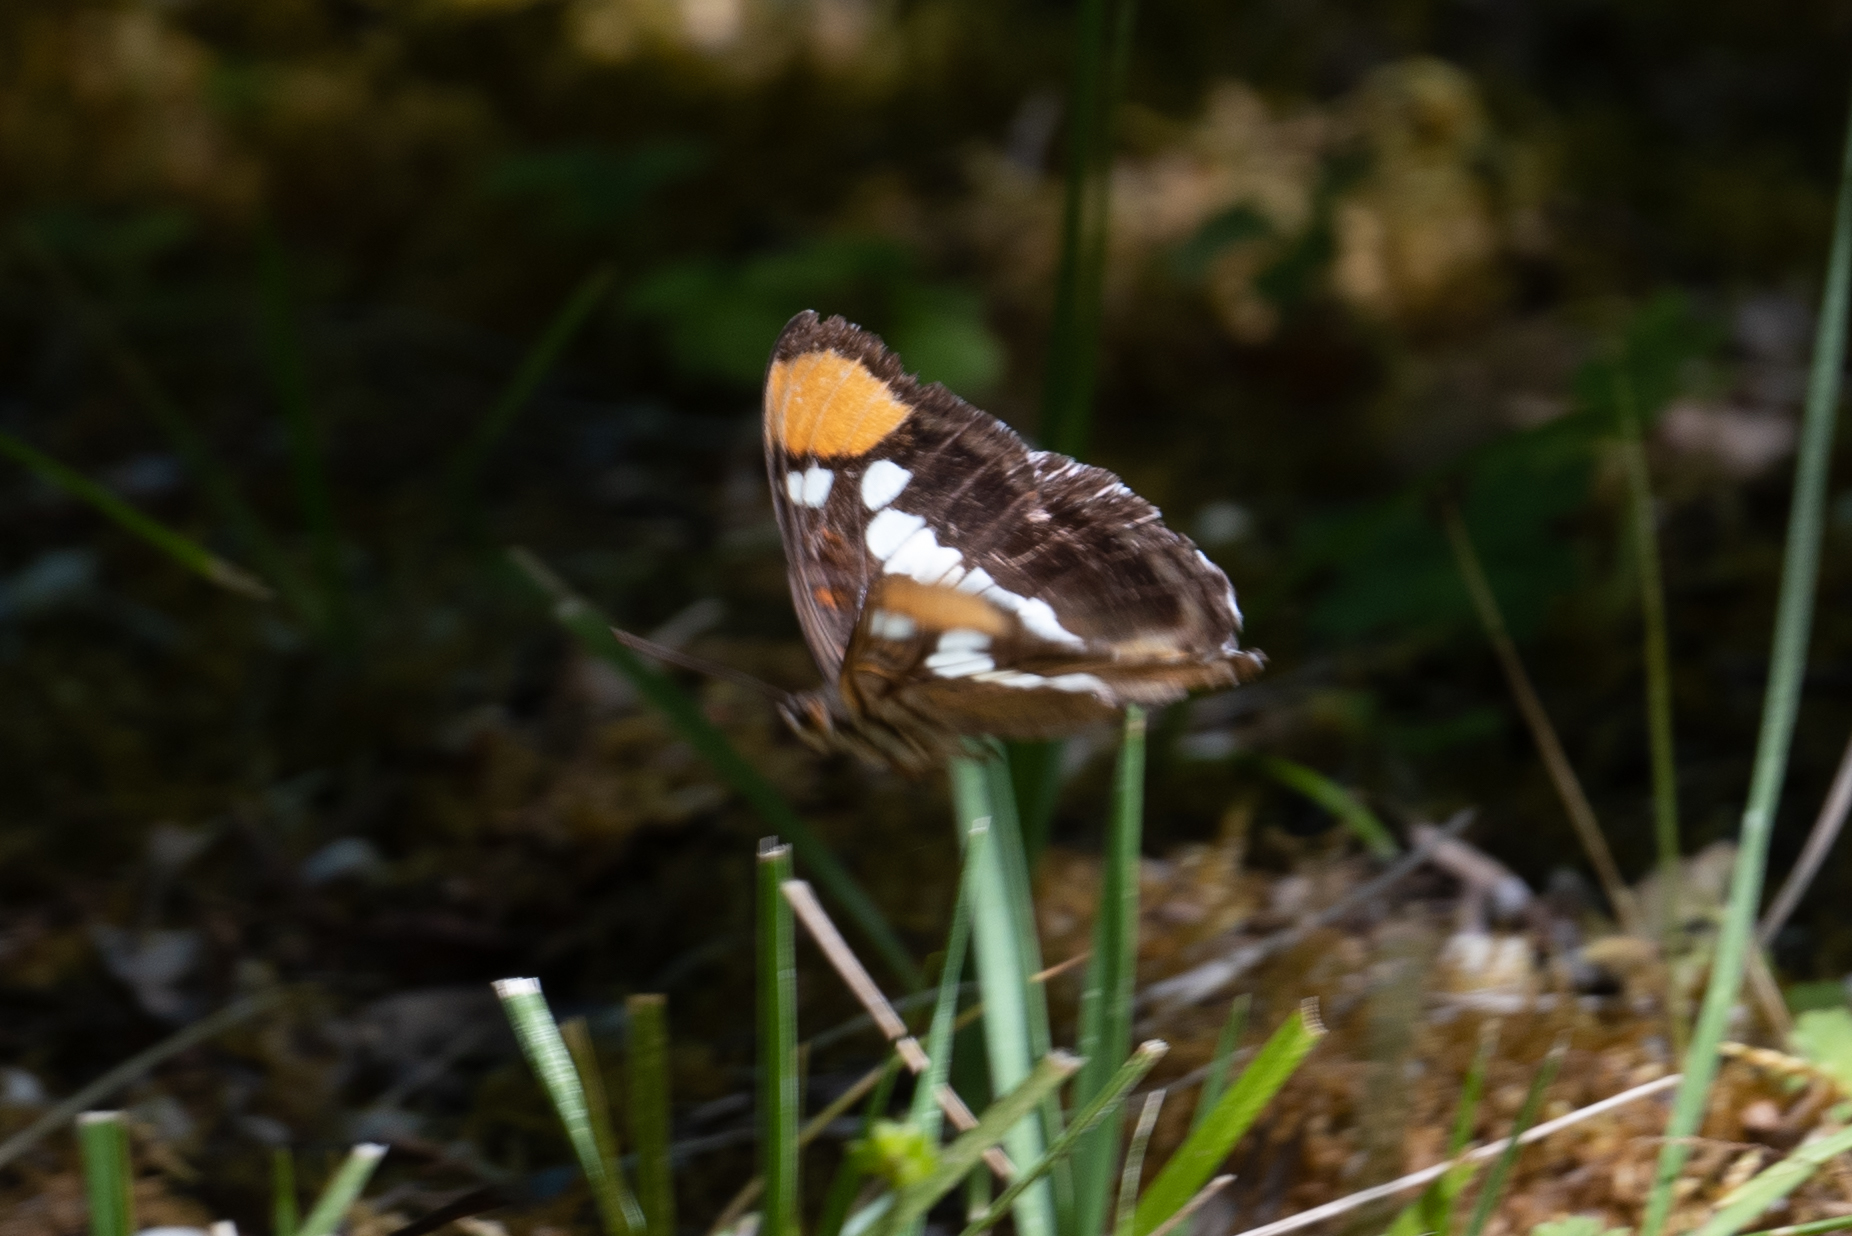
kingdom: Animalia
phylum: Arthropoda
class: Insecta
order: Lepidoptera
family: Nymphalidae
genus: Limenitis
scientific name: Limenitis bredowii
